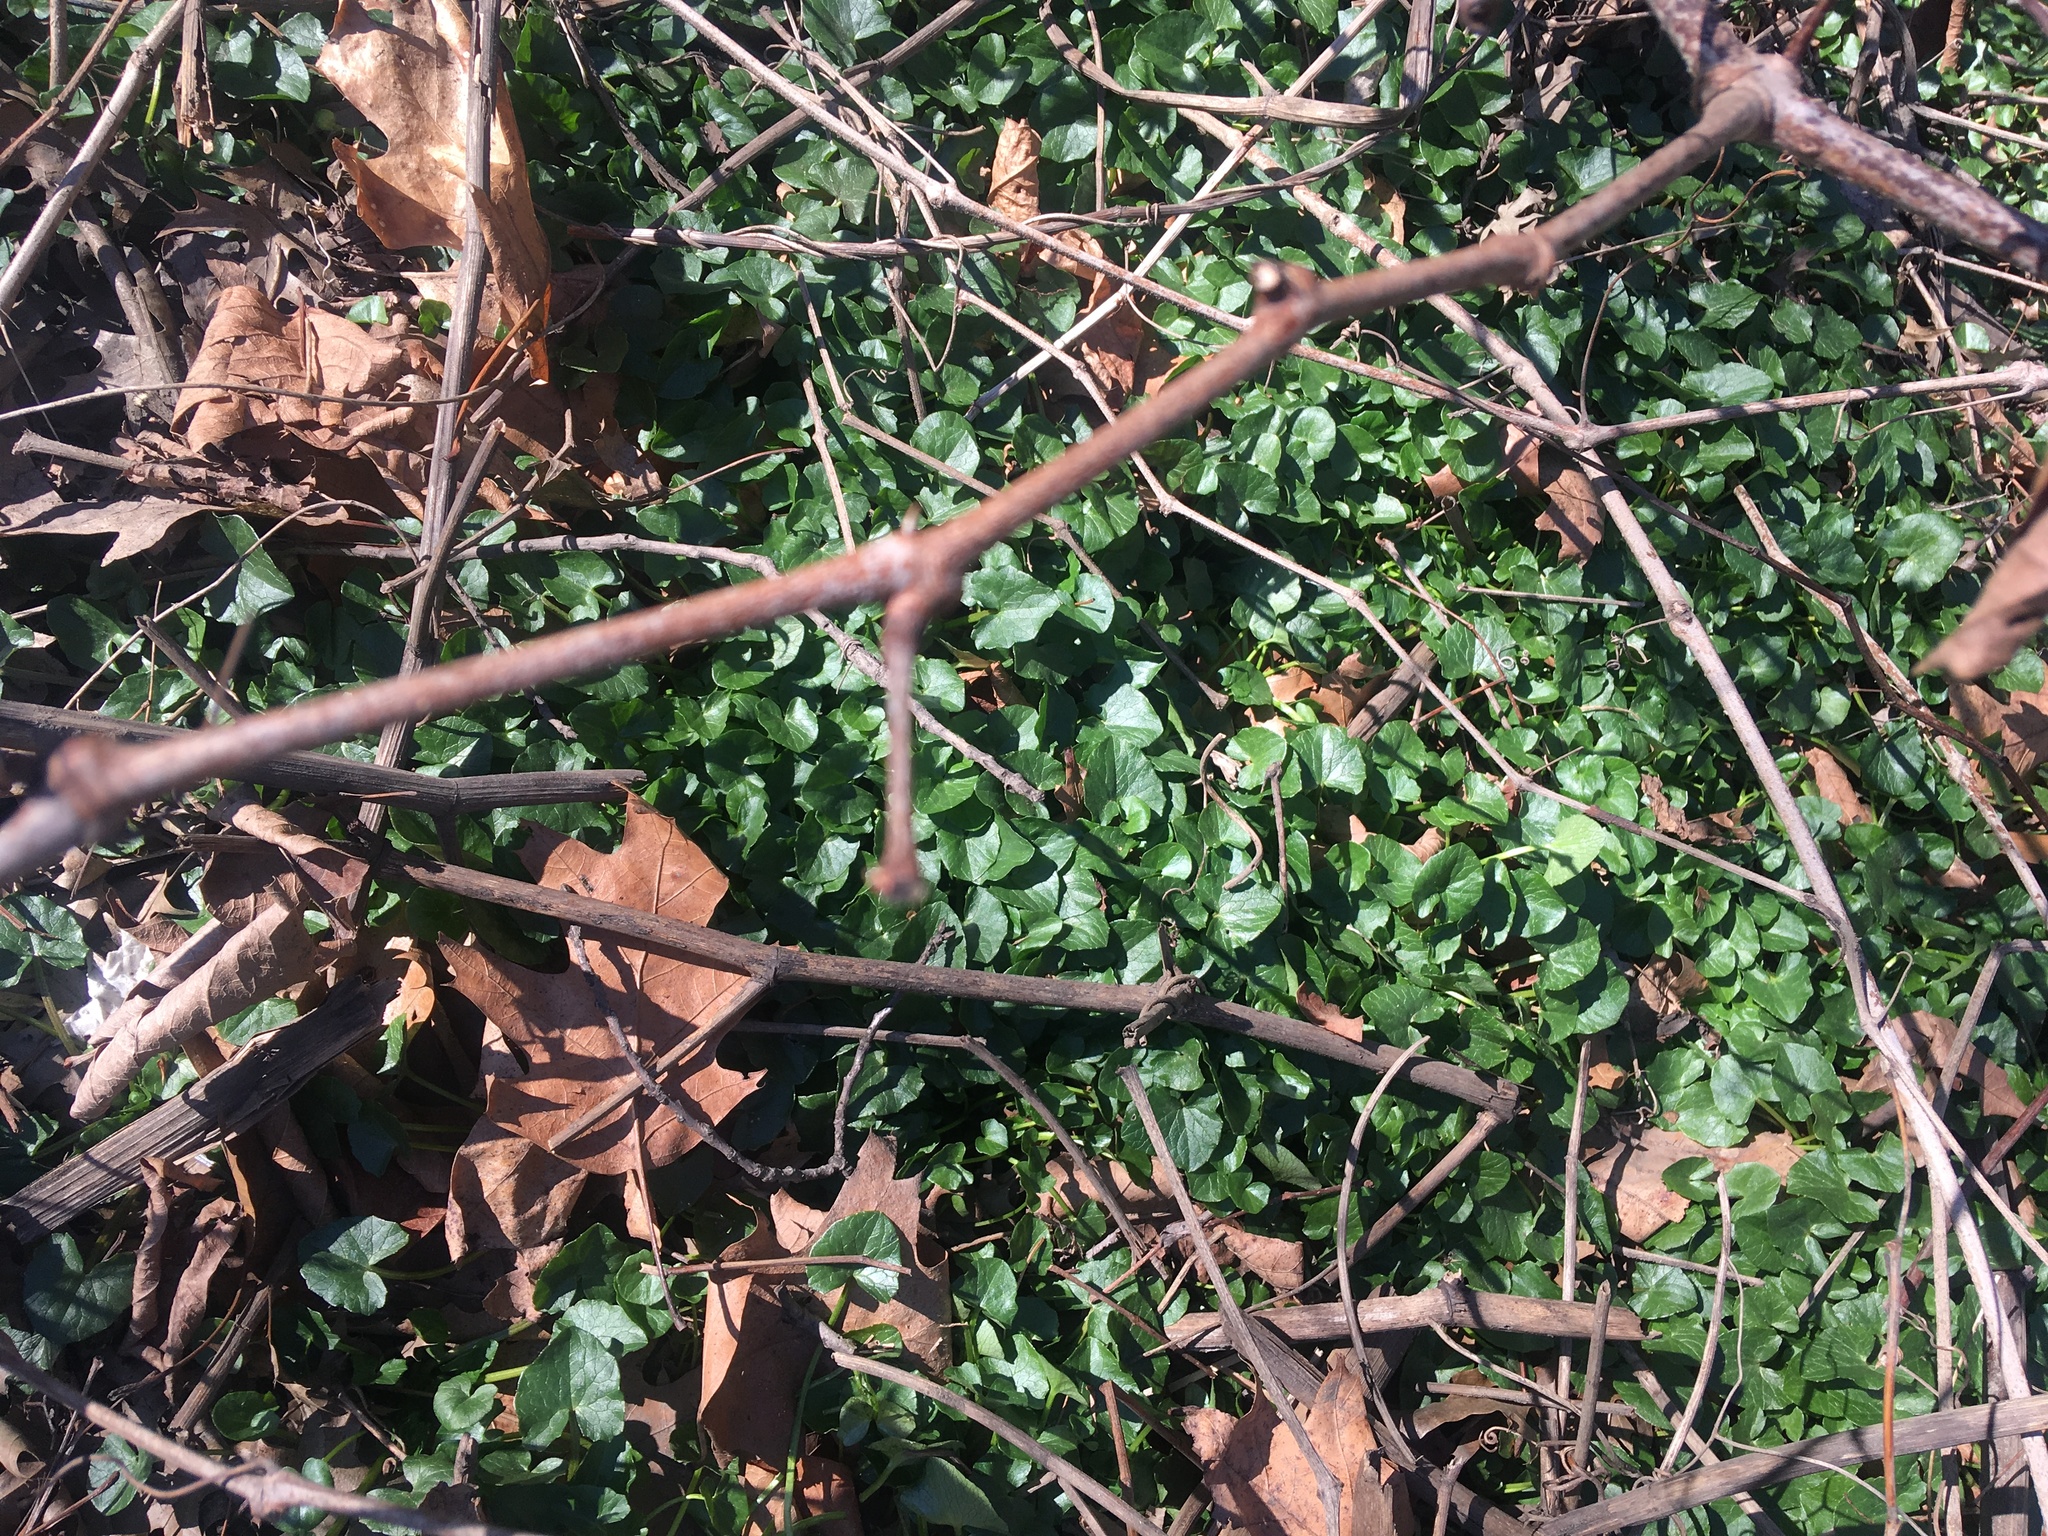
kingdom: Plantae
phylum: Tracheophyta
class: Magnoliopsida
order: Ranunculales
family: Ranunculaceae
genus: Ficaria
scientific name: Ficaria verna
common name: Lesser celandine
